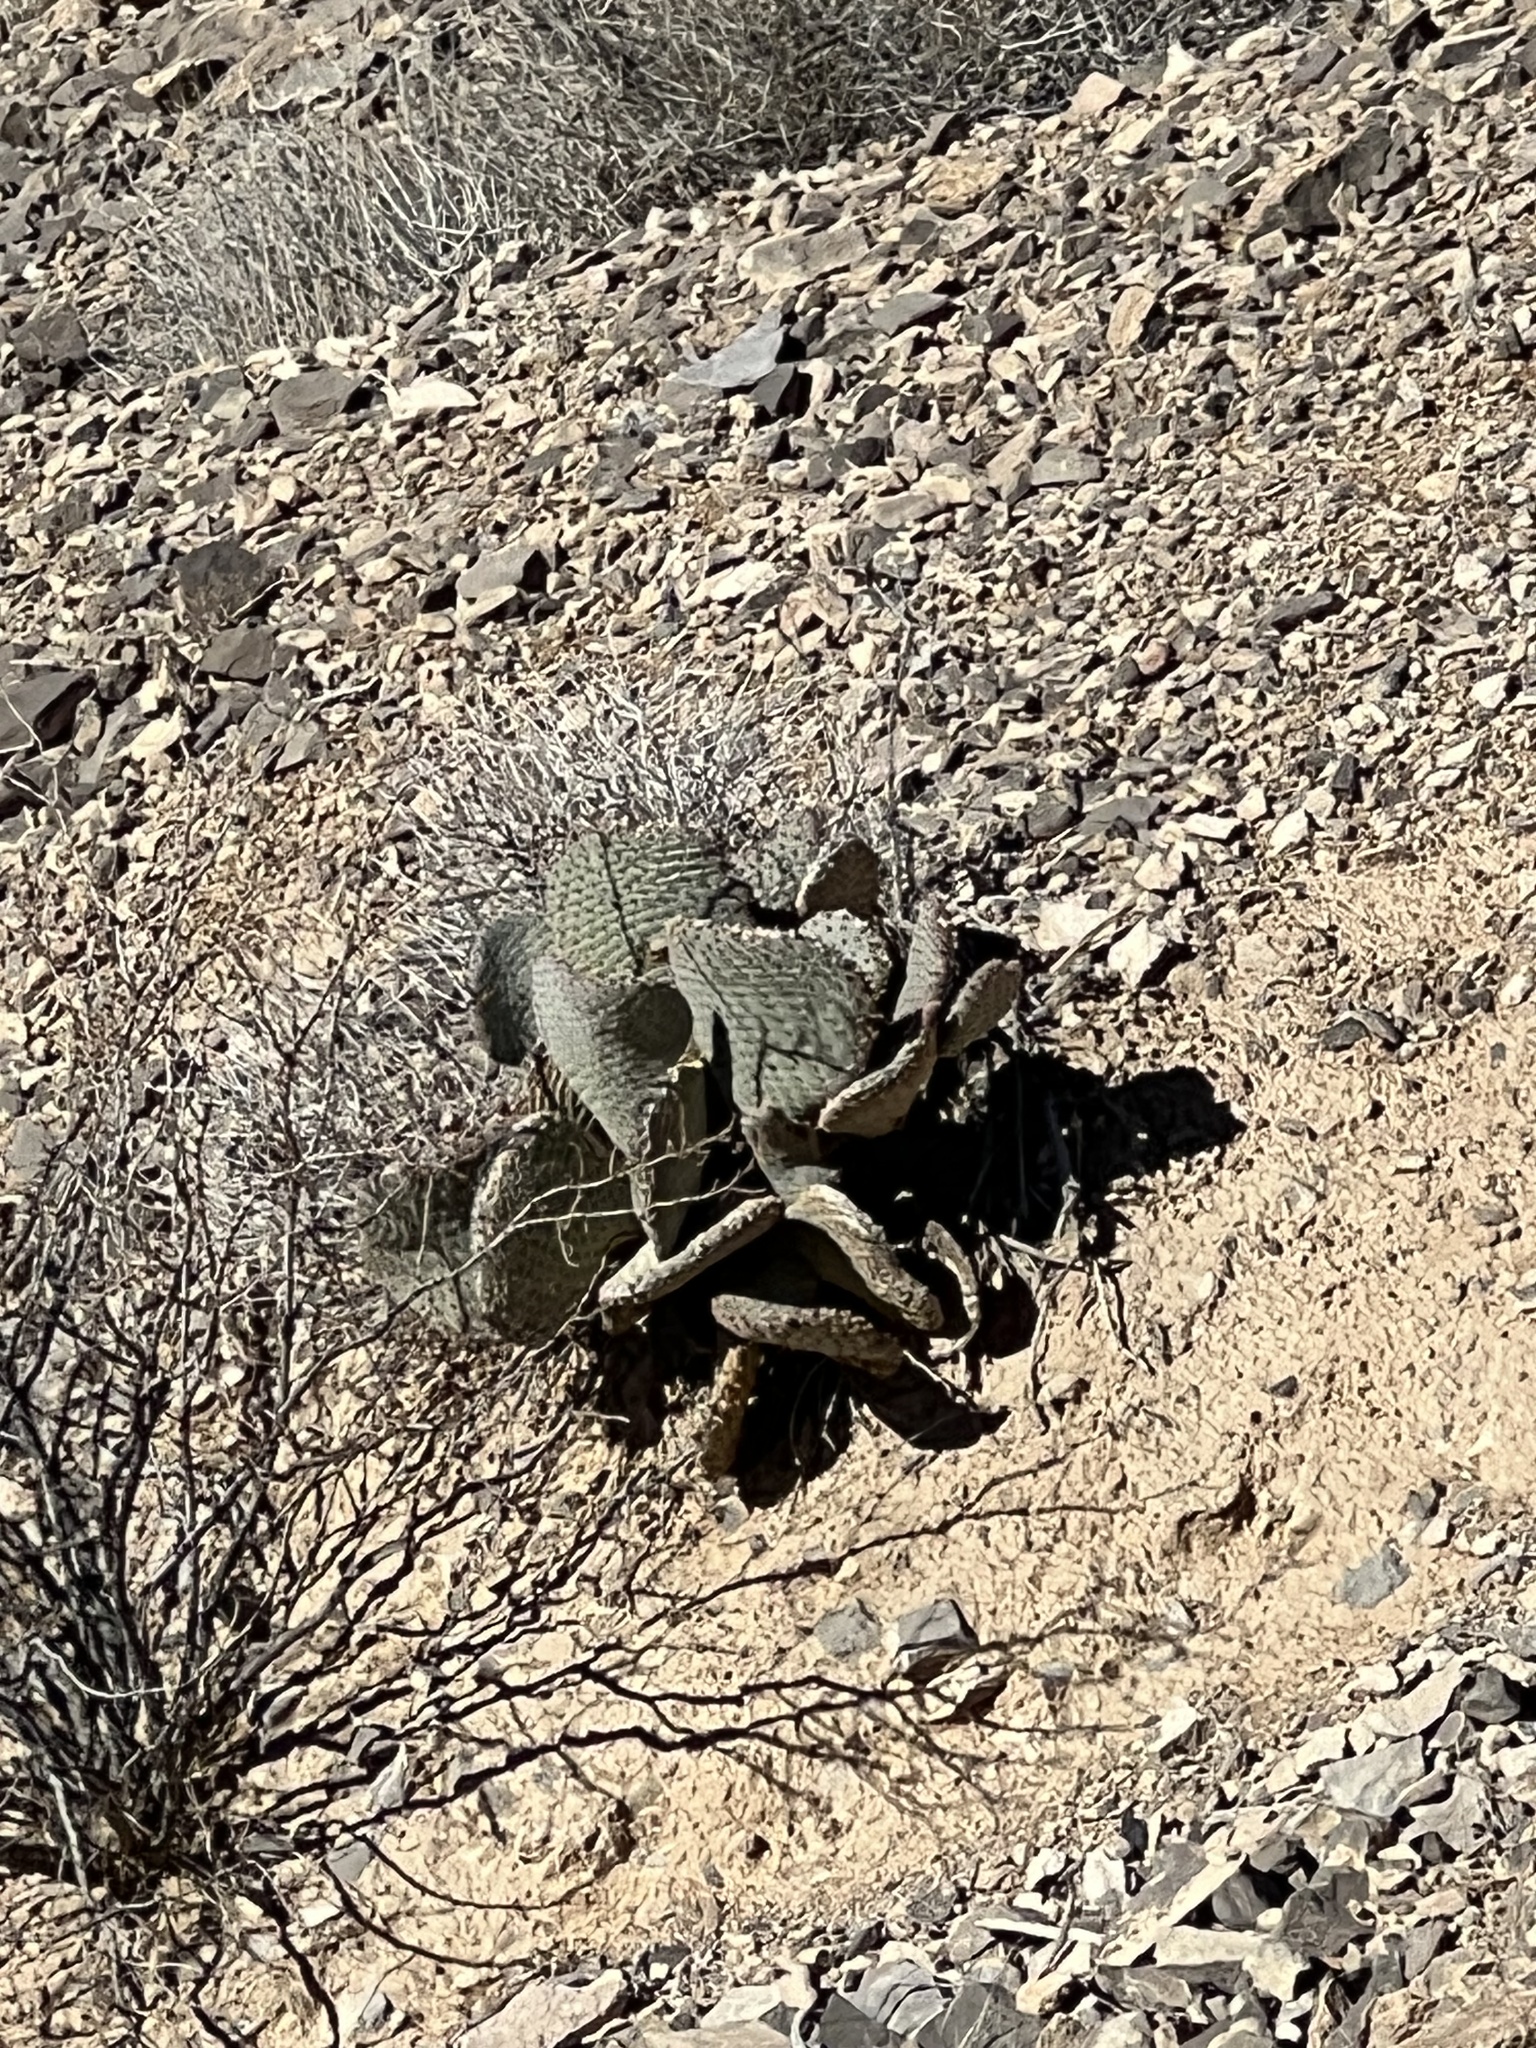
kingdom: Plantae
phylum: Tracheophyta
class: Magnoliopsida
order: Caryophyllales
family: Cactaceae
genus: Opuntia
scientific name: Opuntia basilaris
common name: Beavertail prickly-pear
